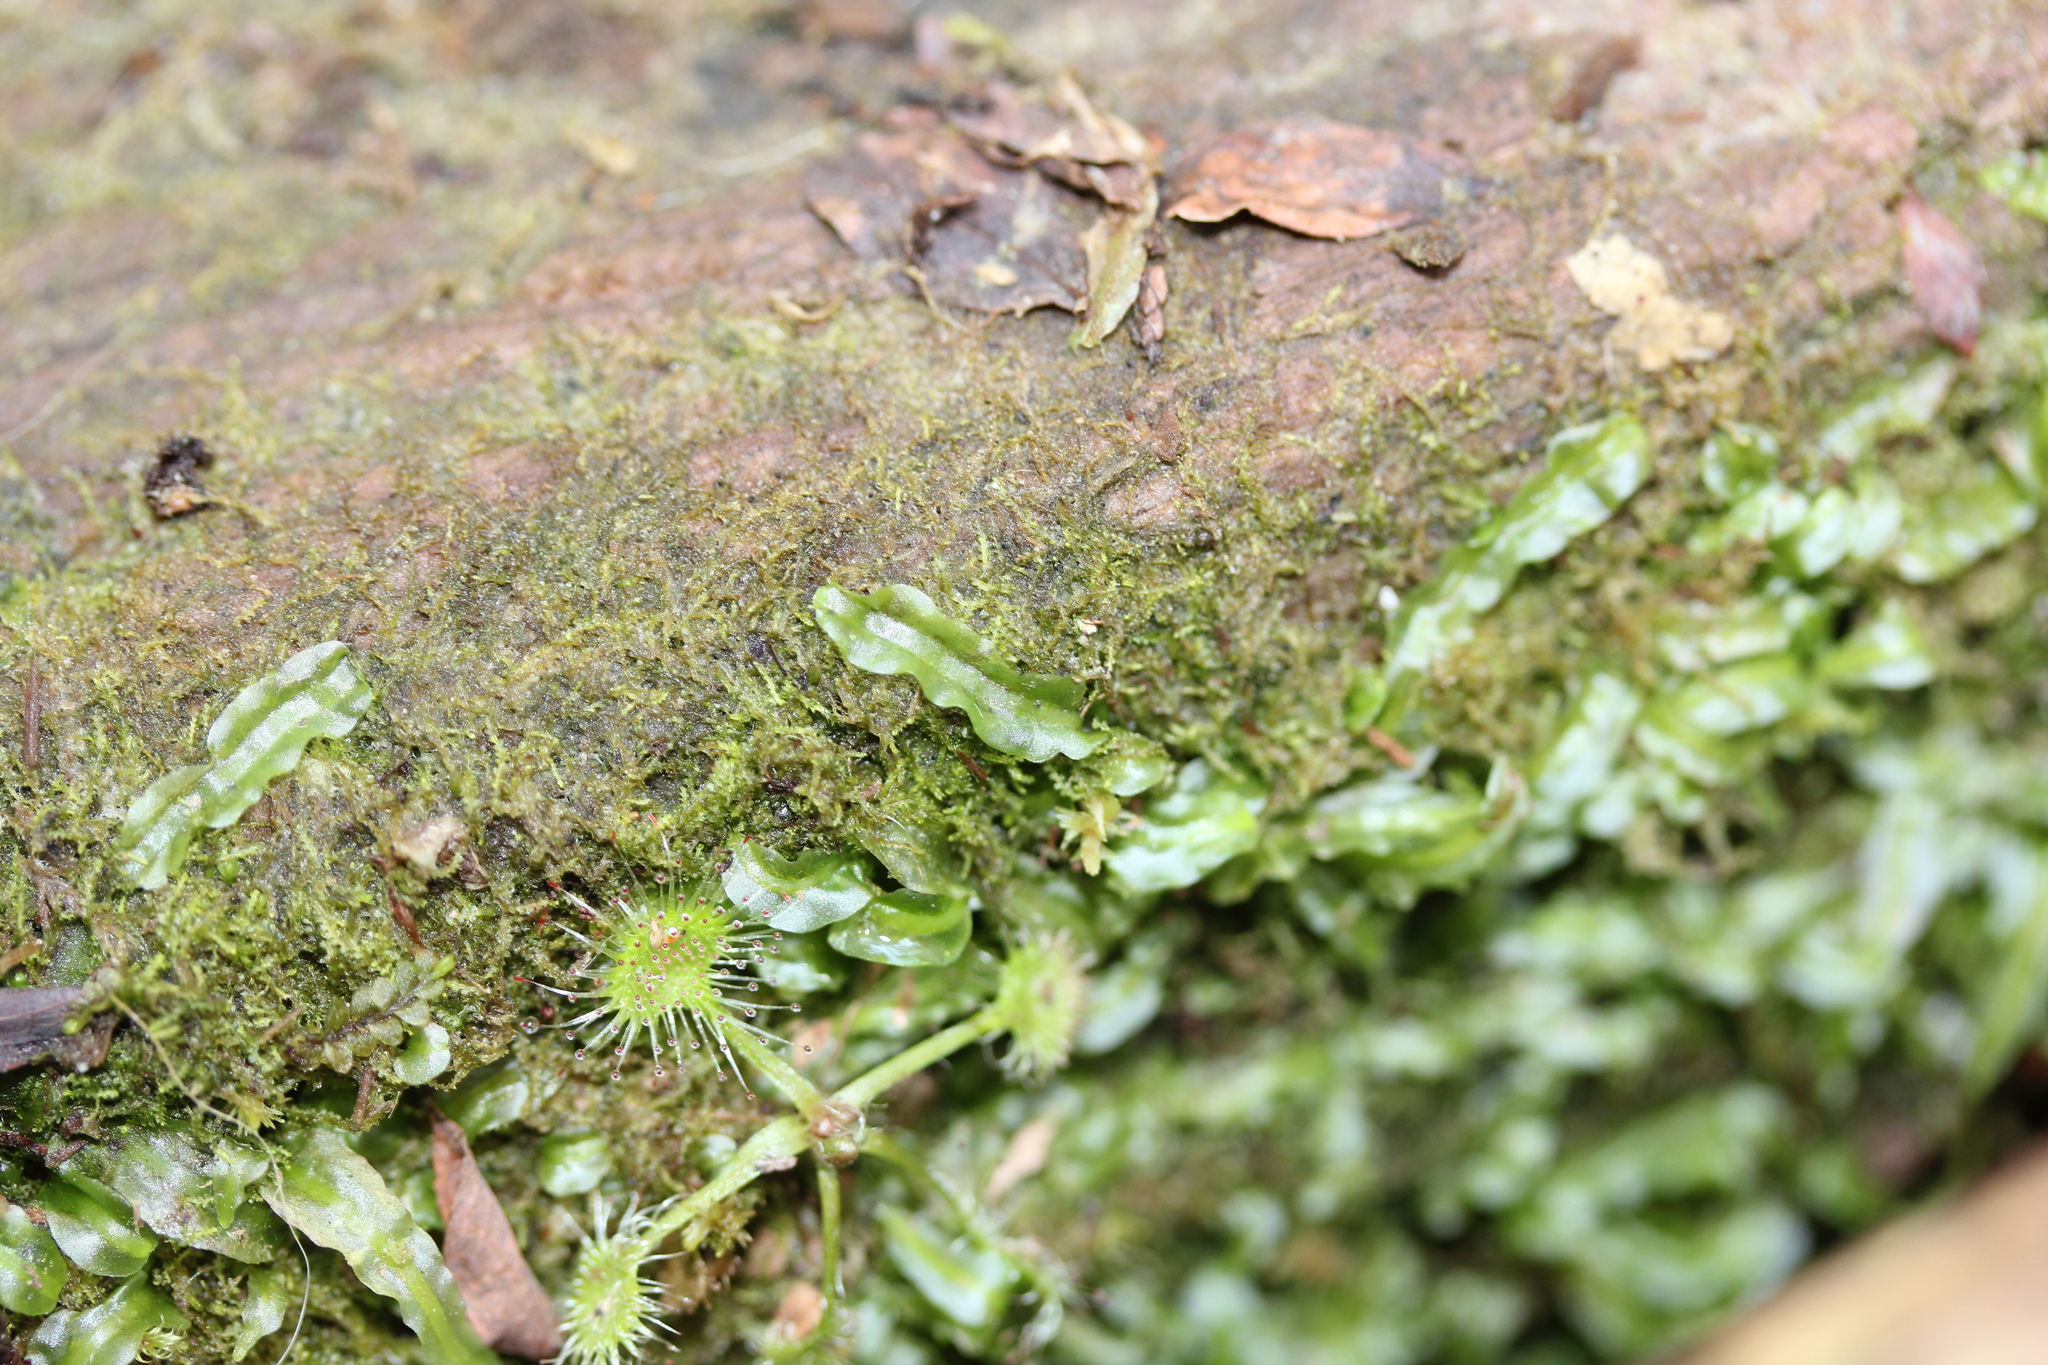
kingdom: Plantae
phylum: Marchantiophyta
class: Jungermanniopsida
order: Pallaviciniales
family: Pallaviciniaceae
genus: Pallavicinia
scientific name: Pallavicinia lyellii
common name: Veilwort
